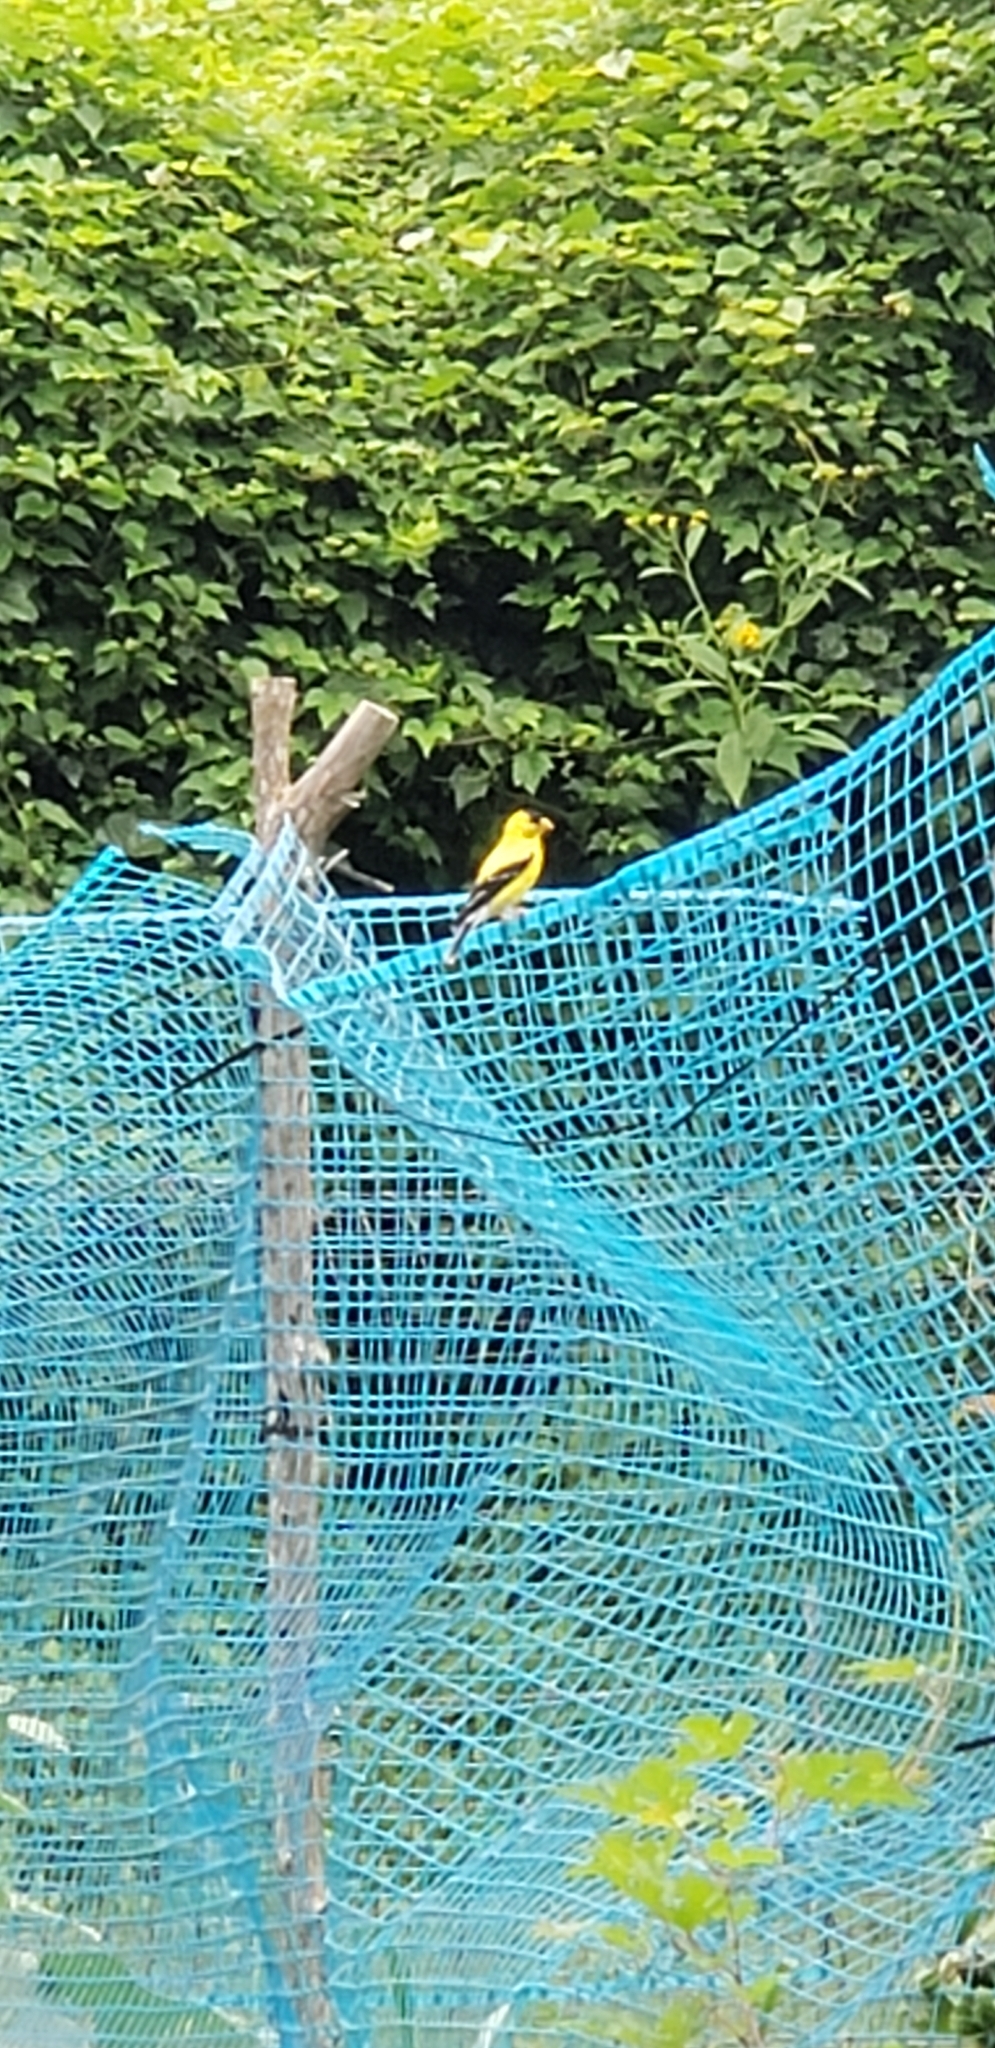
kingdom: Animalia
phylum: Chordata
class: Aves
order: Passeriformes
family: Fringillidae
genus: Spinus
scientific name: Spinus tristis
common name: American goldfinch
